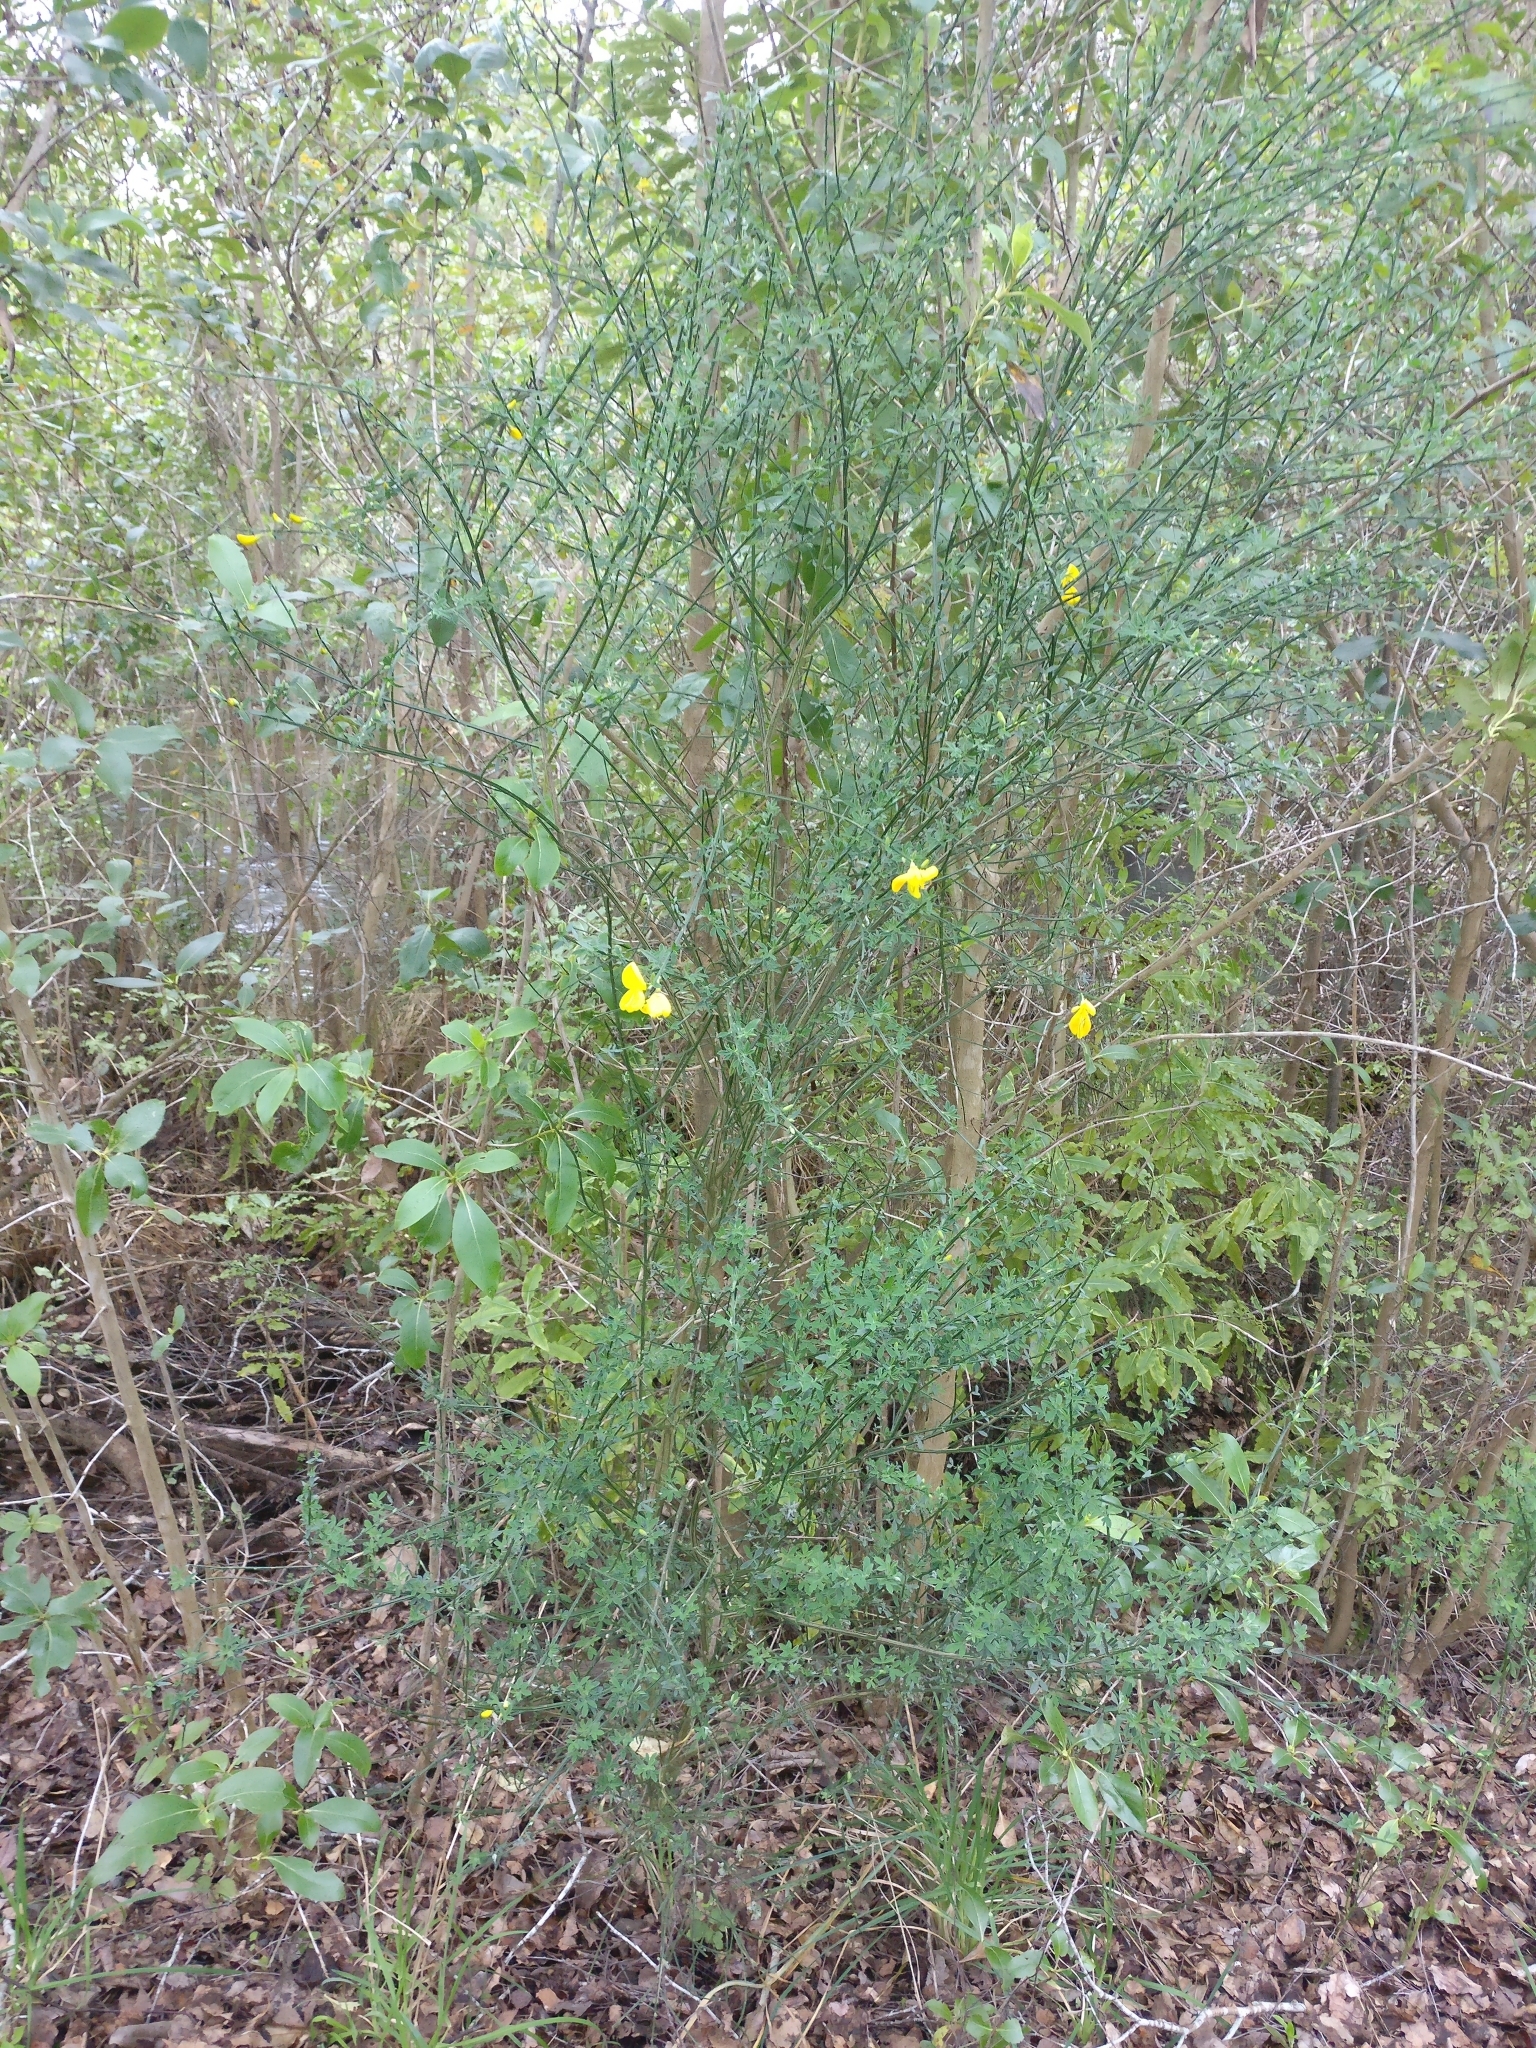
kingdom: Plantae
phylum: Tracheophyta
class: Magnoliopsida
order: Fabales
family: Fabaceae
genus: Cytisus
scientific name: Cytisus scoparius
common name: Scotch broom
